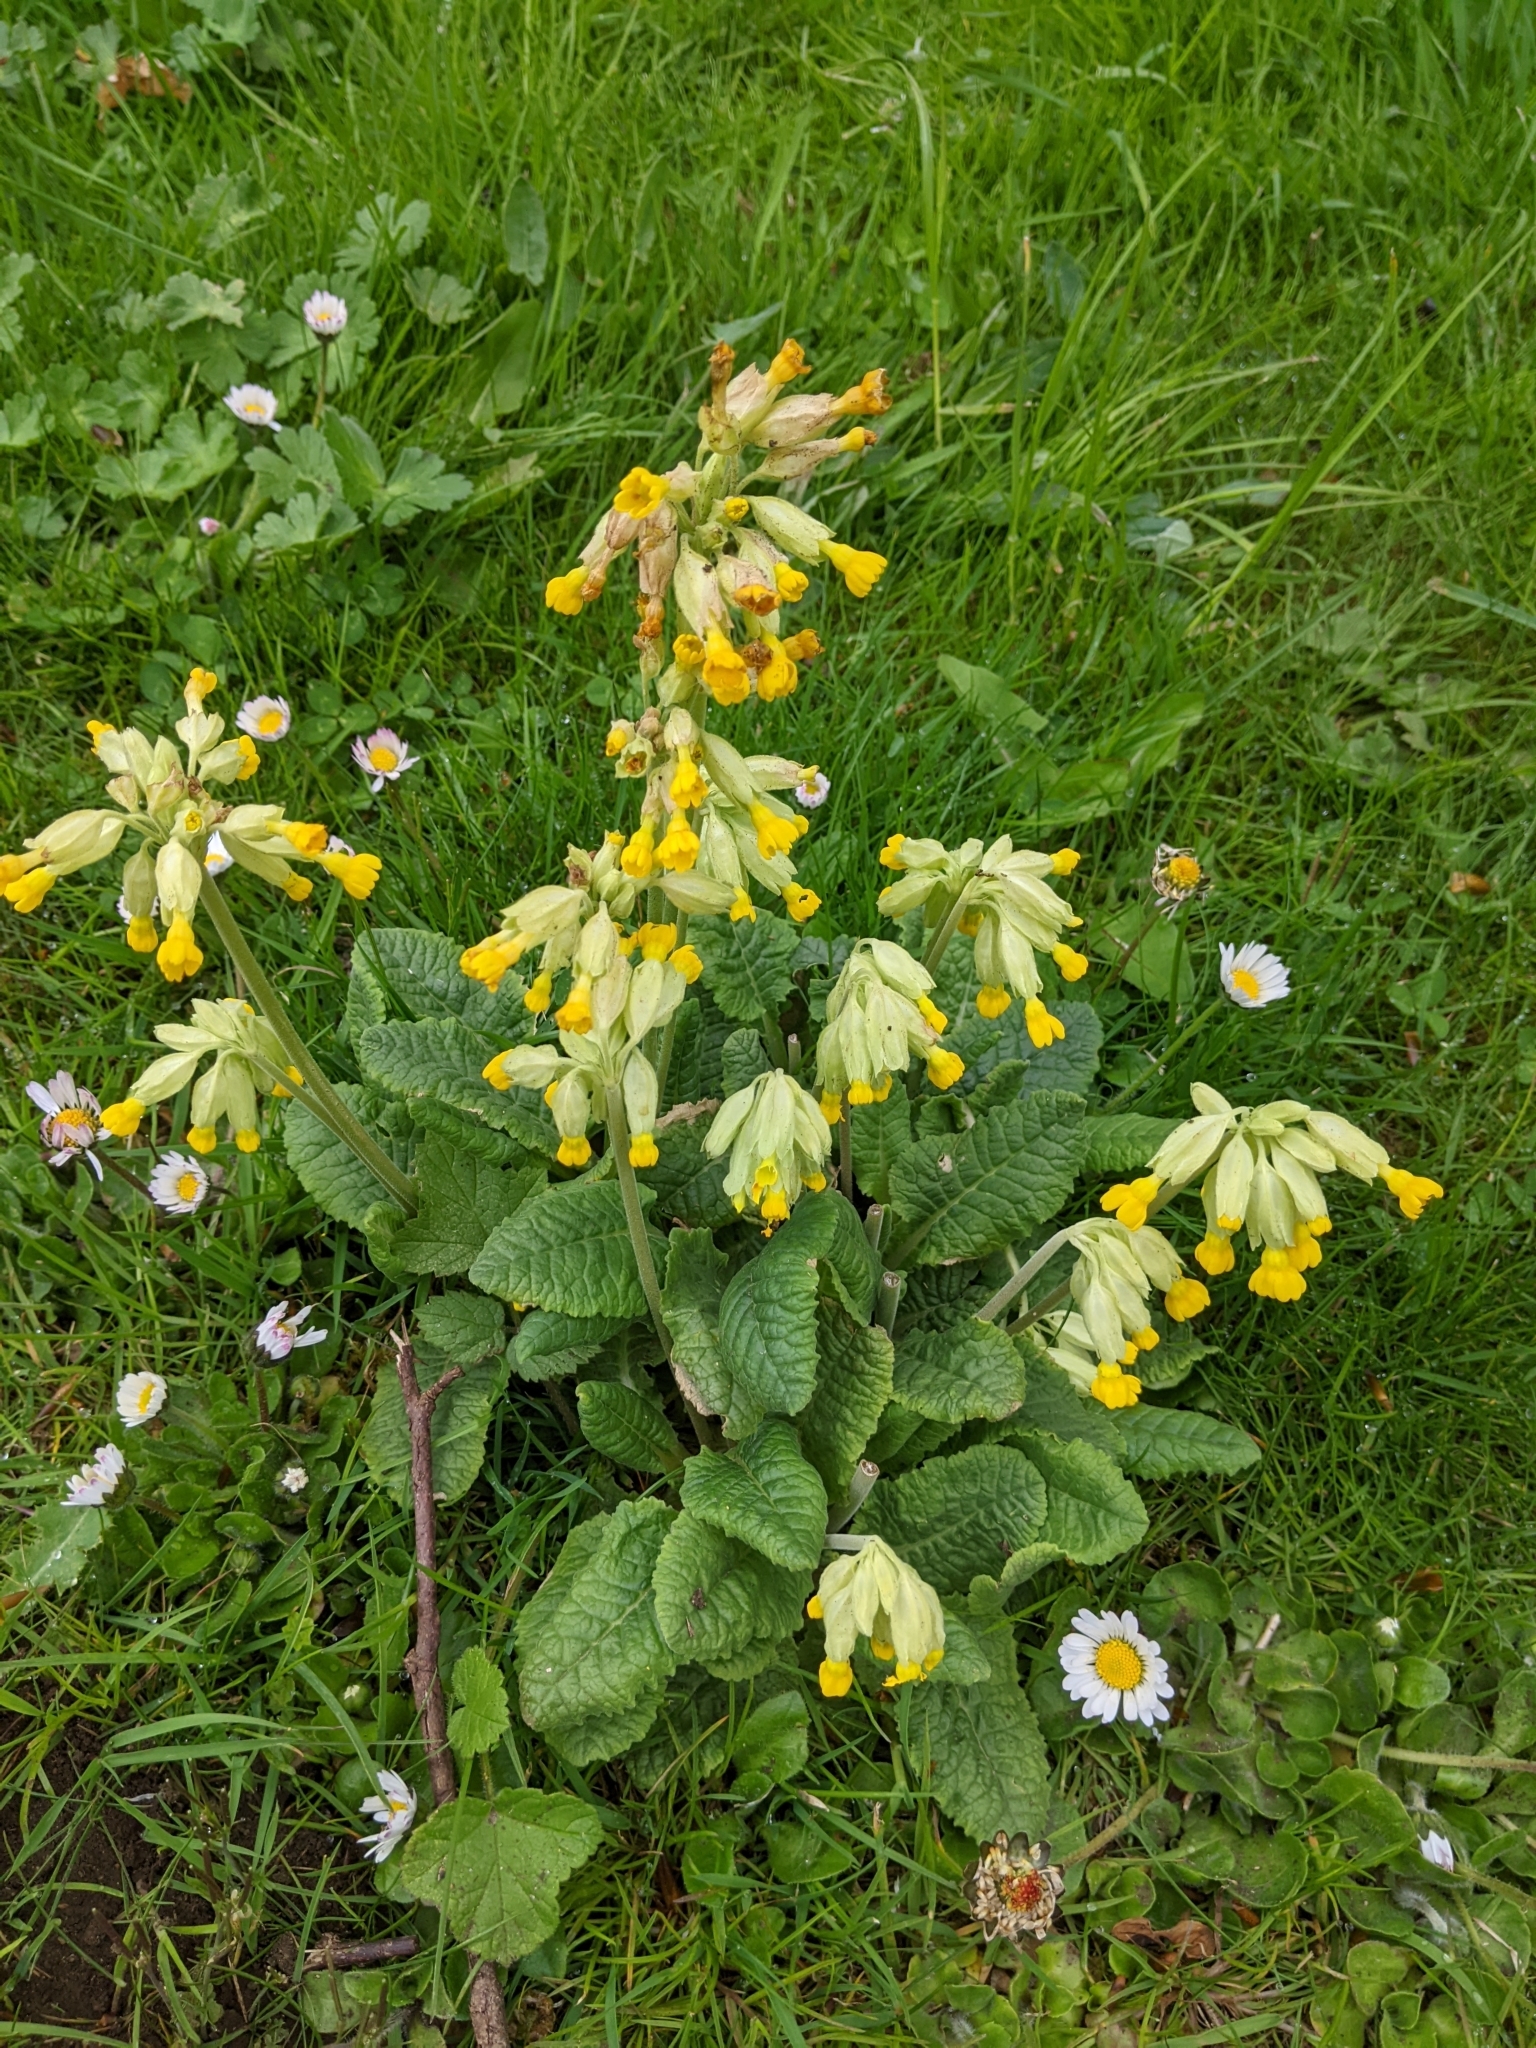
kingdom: Plantae
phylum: Tracheophyta
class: Magnoliopsida
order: Ericales
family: Primulaceae
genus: Primula
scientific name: Primula veris
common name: Cowslip
